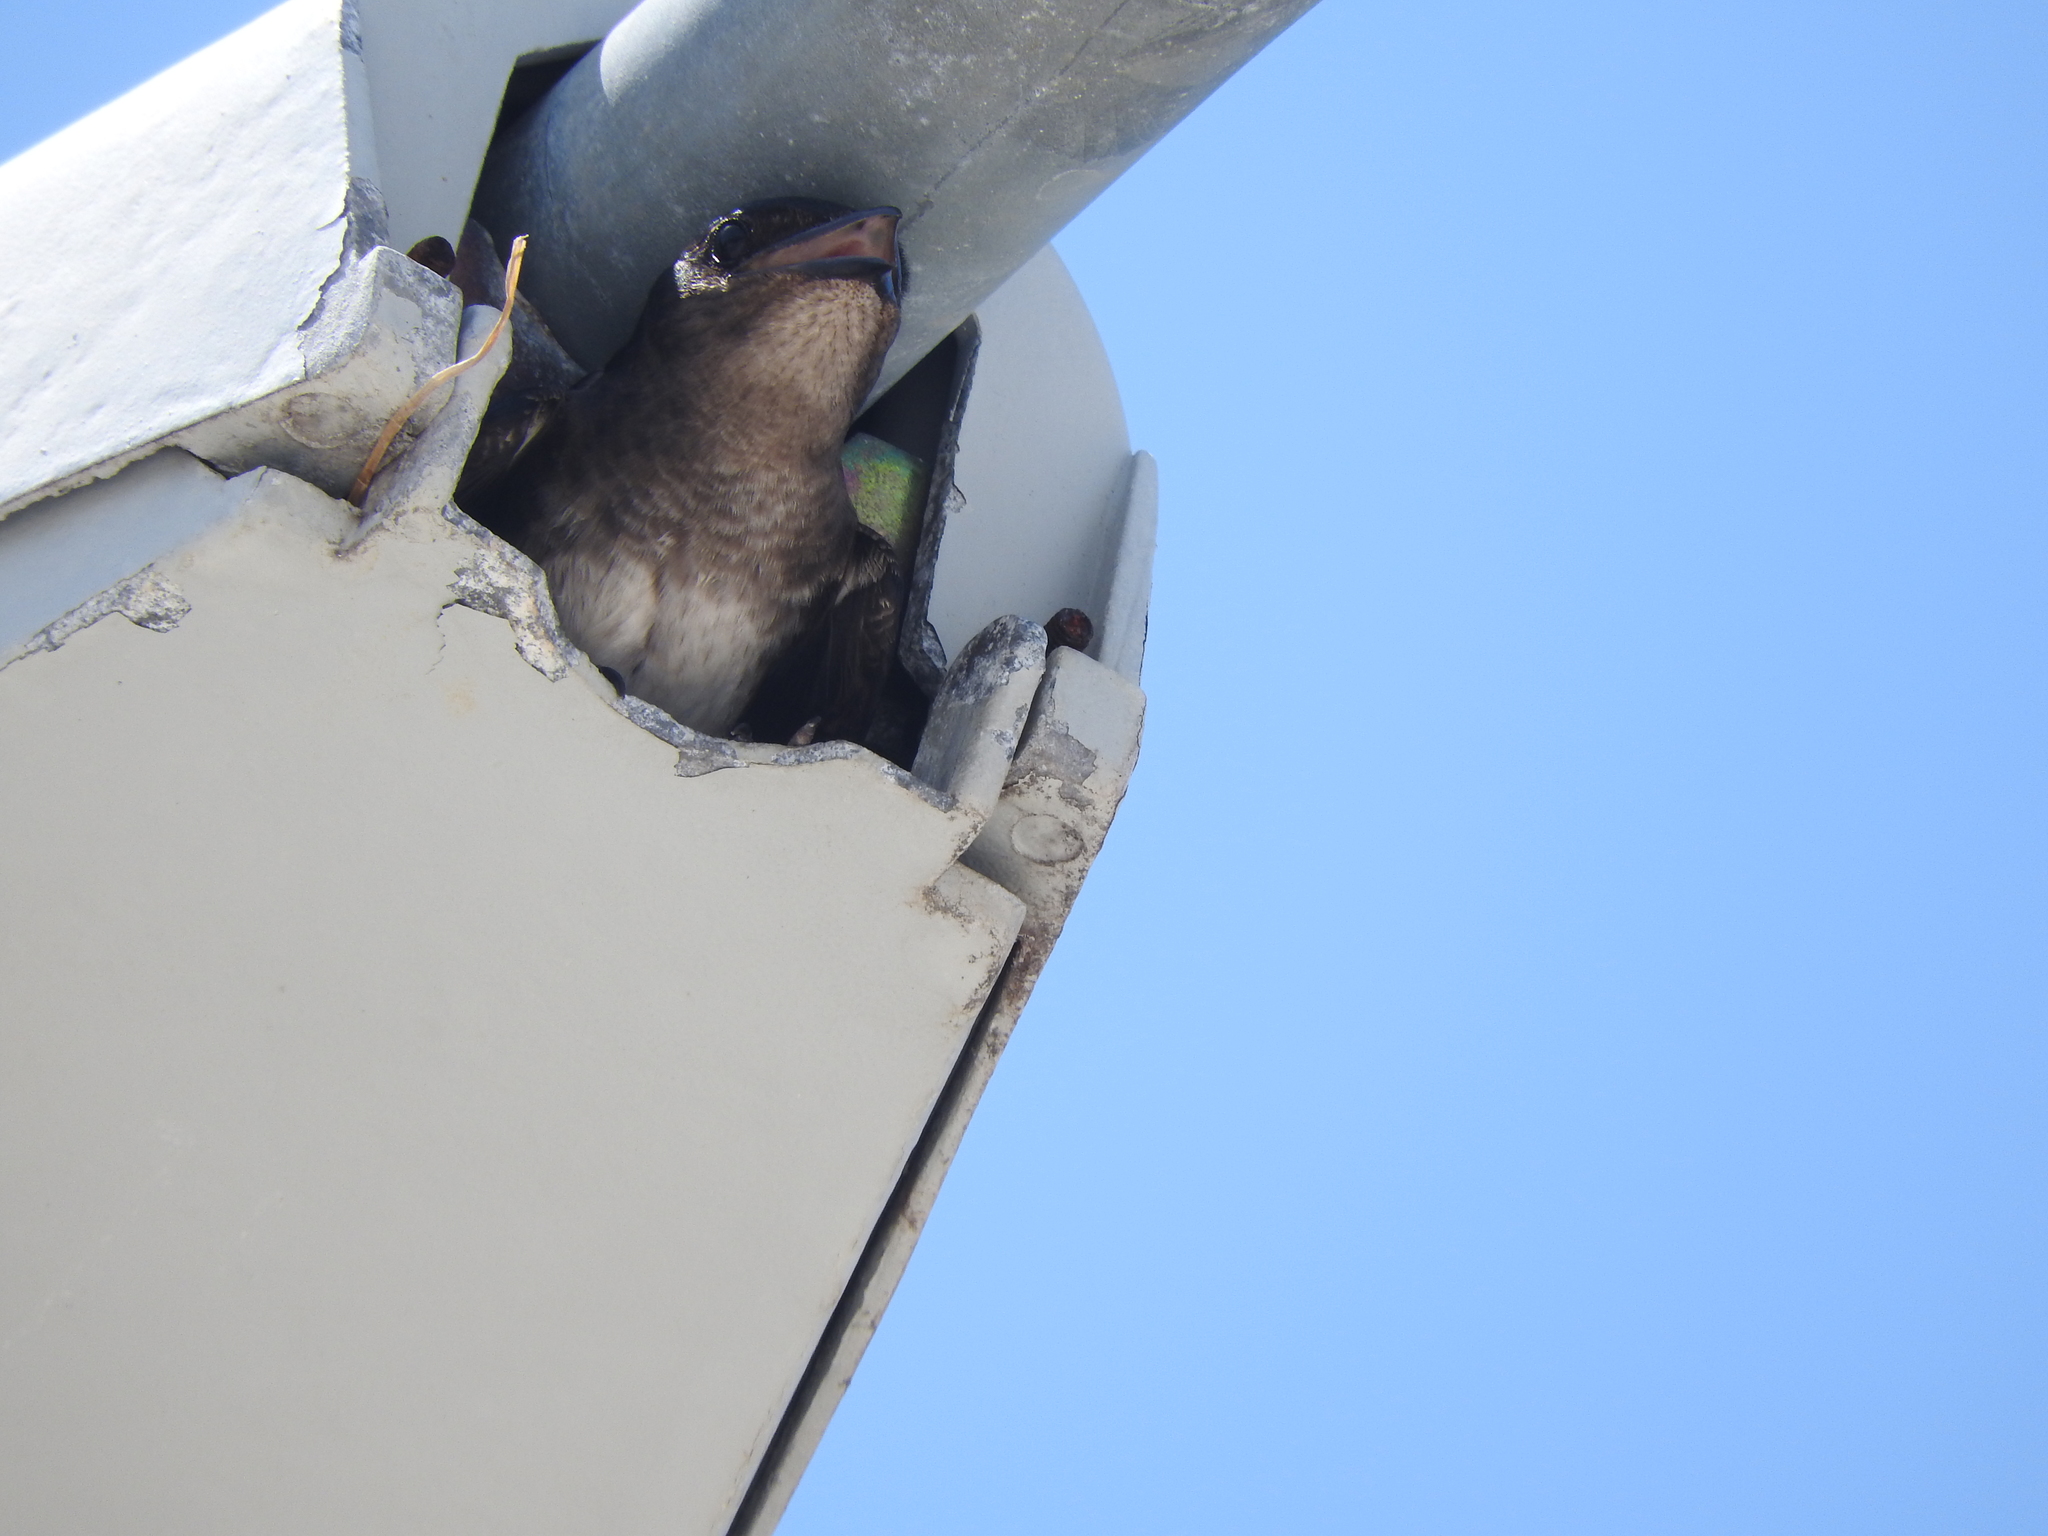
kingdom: Animalia
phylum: Chordata
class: Aves
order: Passeriformes
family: Hirundinidae
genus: Progne
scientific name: Progne chalybea
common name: Grey-breasted martin
